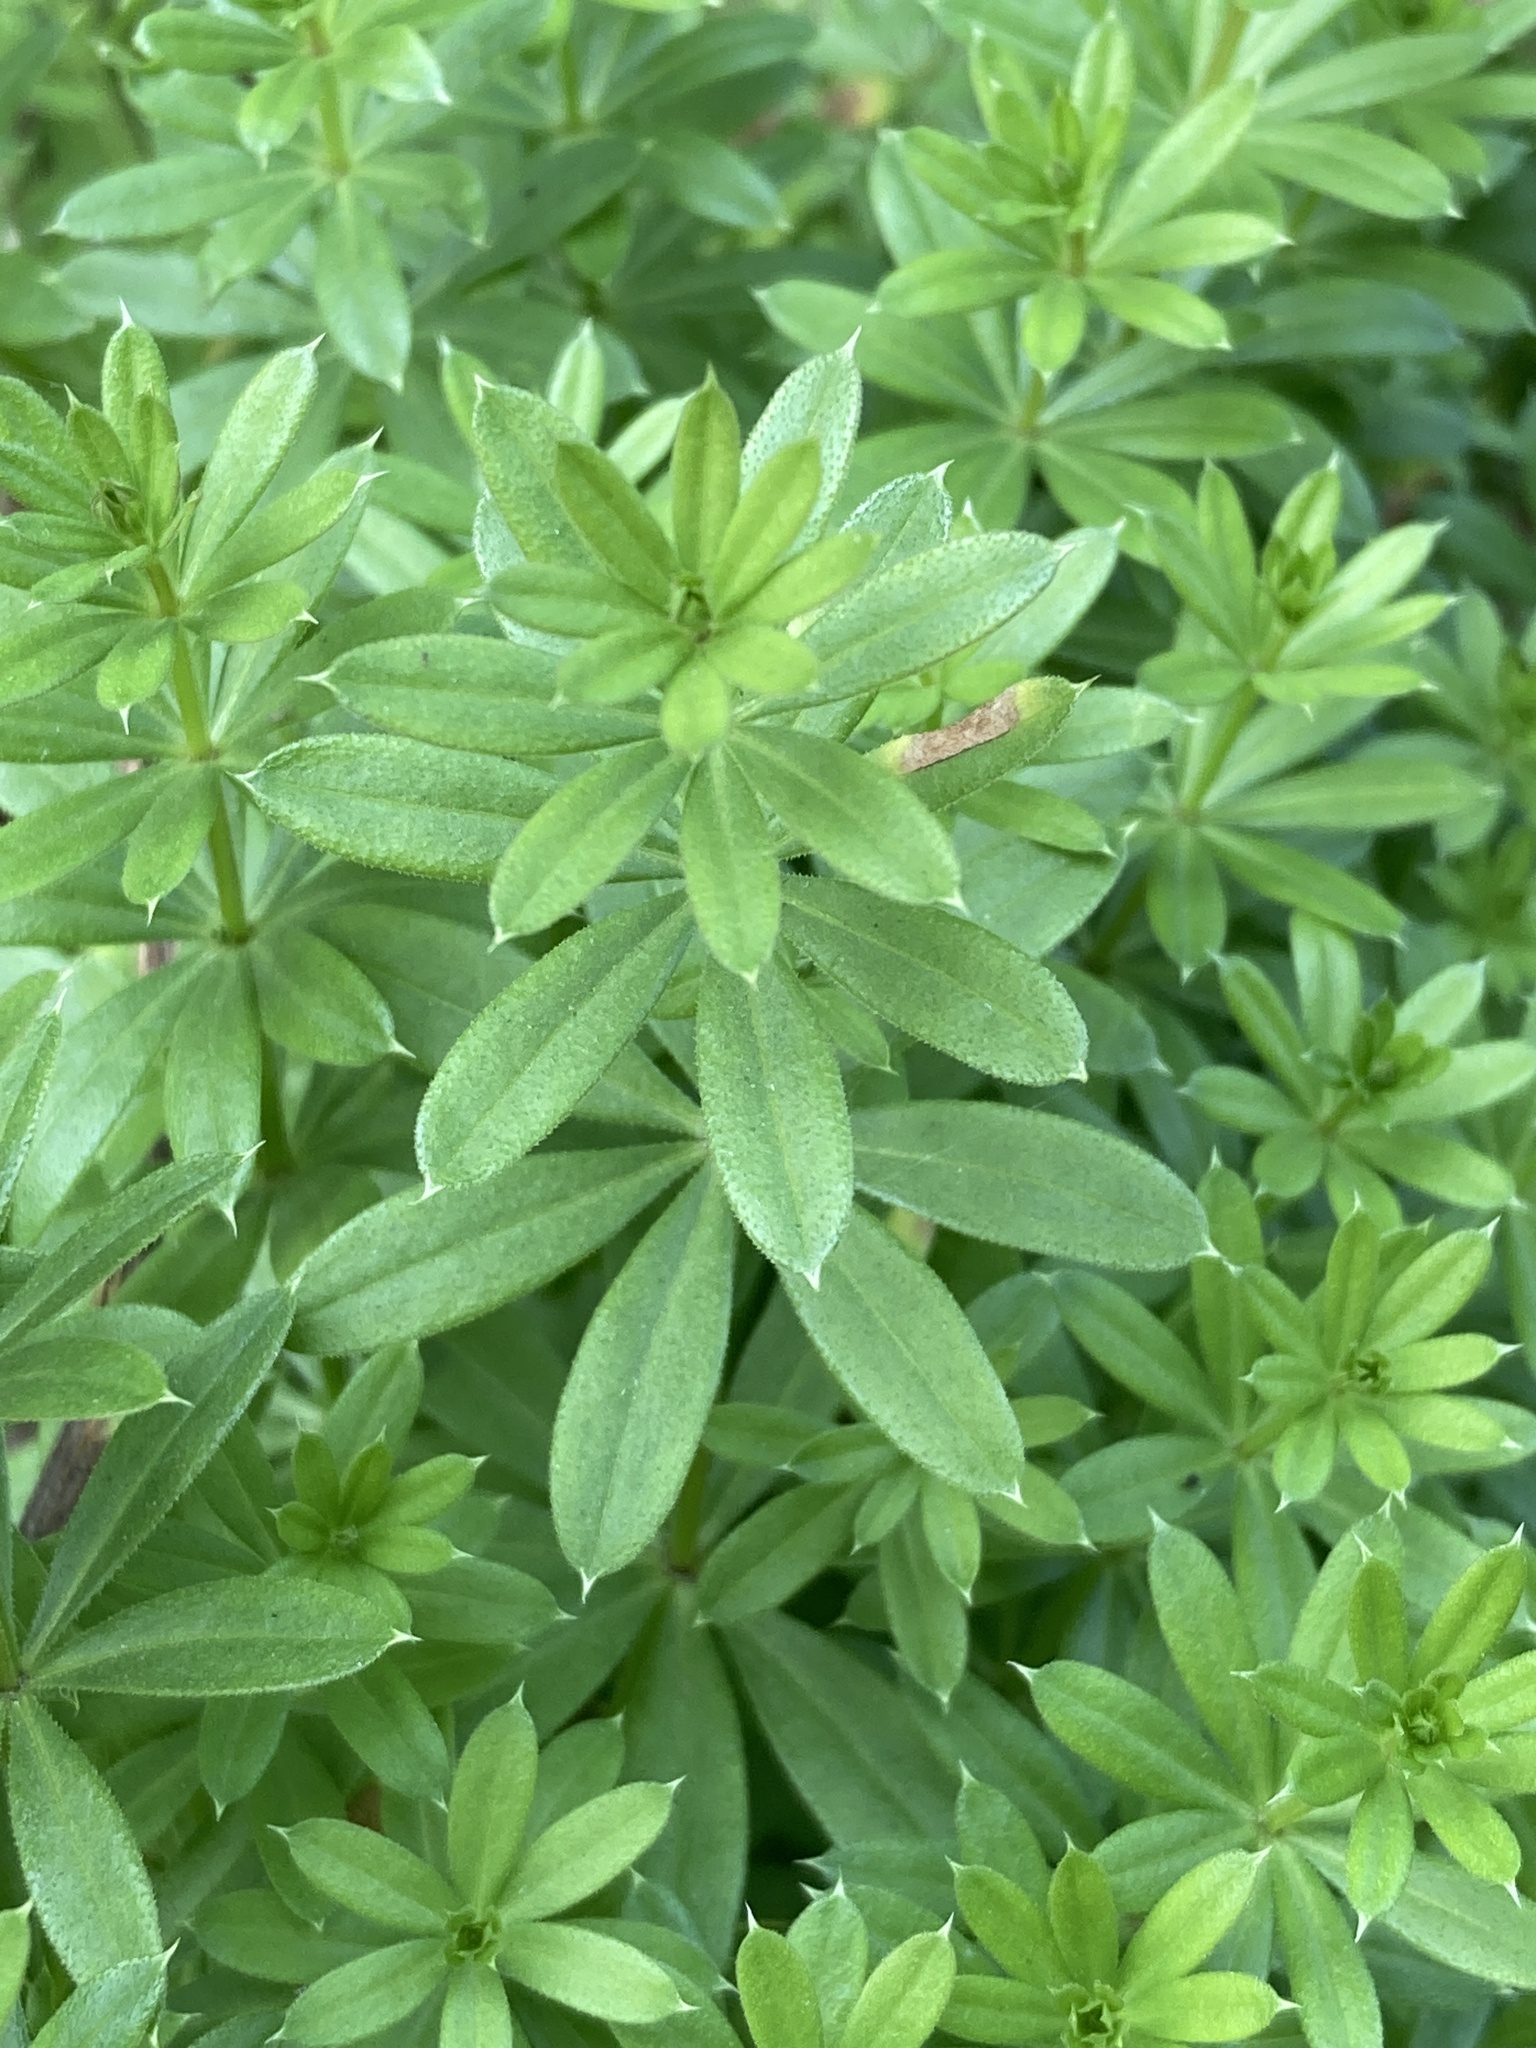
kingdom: Plantae
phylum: Tracheophyta
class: Magnoliopsida
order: Gentianales
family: Rubiaceae
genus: Galium
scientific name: Galium rivale
